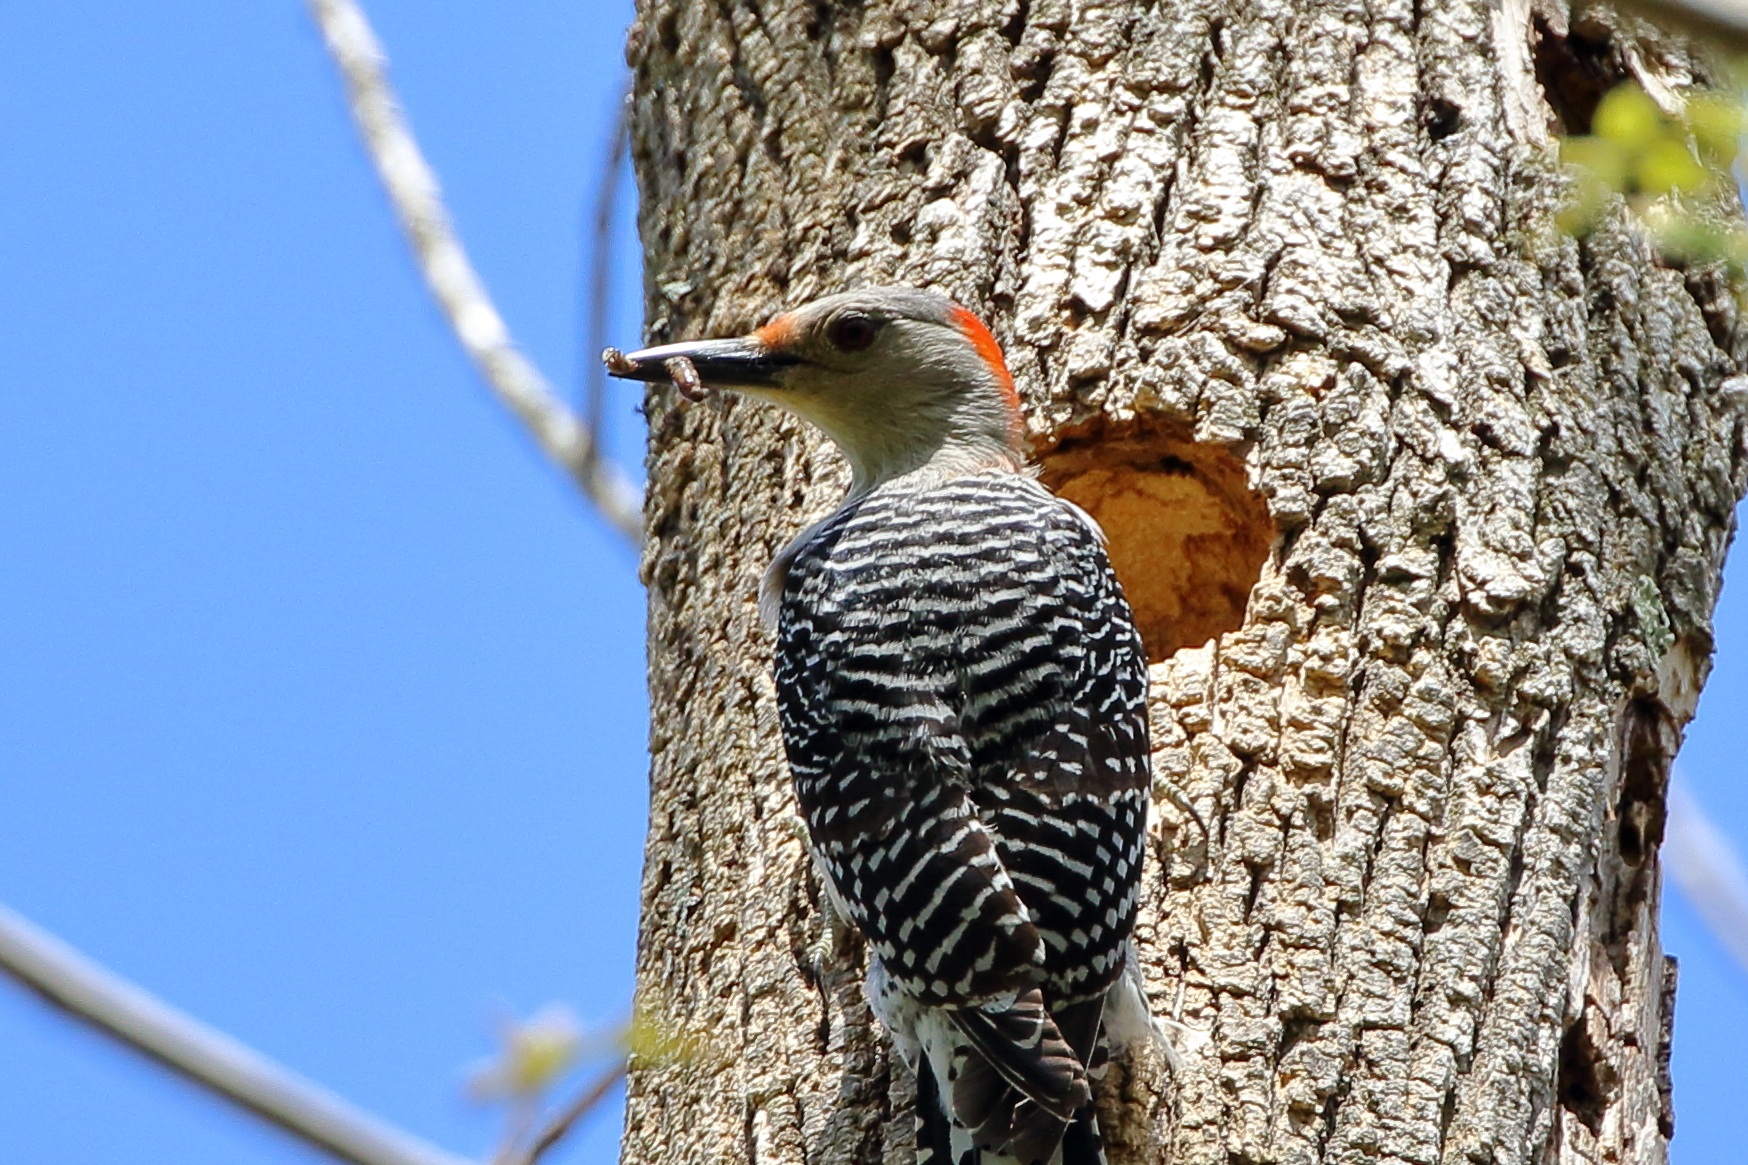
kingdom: Animalia
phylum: Chordata
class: Aves
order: Piciformes
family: Picidae
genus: Melanerpes
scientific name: Melanerpes carolinus
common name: Red-bellied woodpecker
